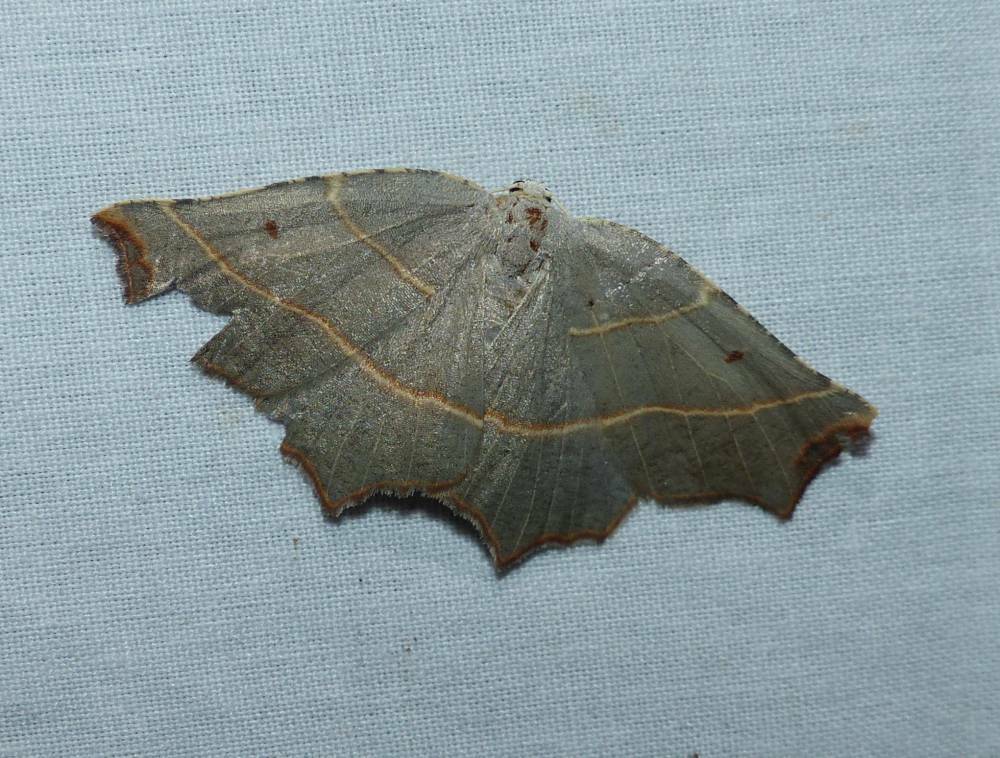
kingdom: Animalia
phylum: Arthropoda
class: Insecta
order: Lepidoptera
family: Geometridae
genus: Metanema
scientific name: Metanema inatomaria
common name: Pale metanema
